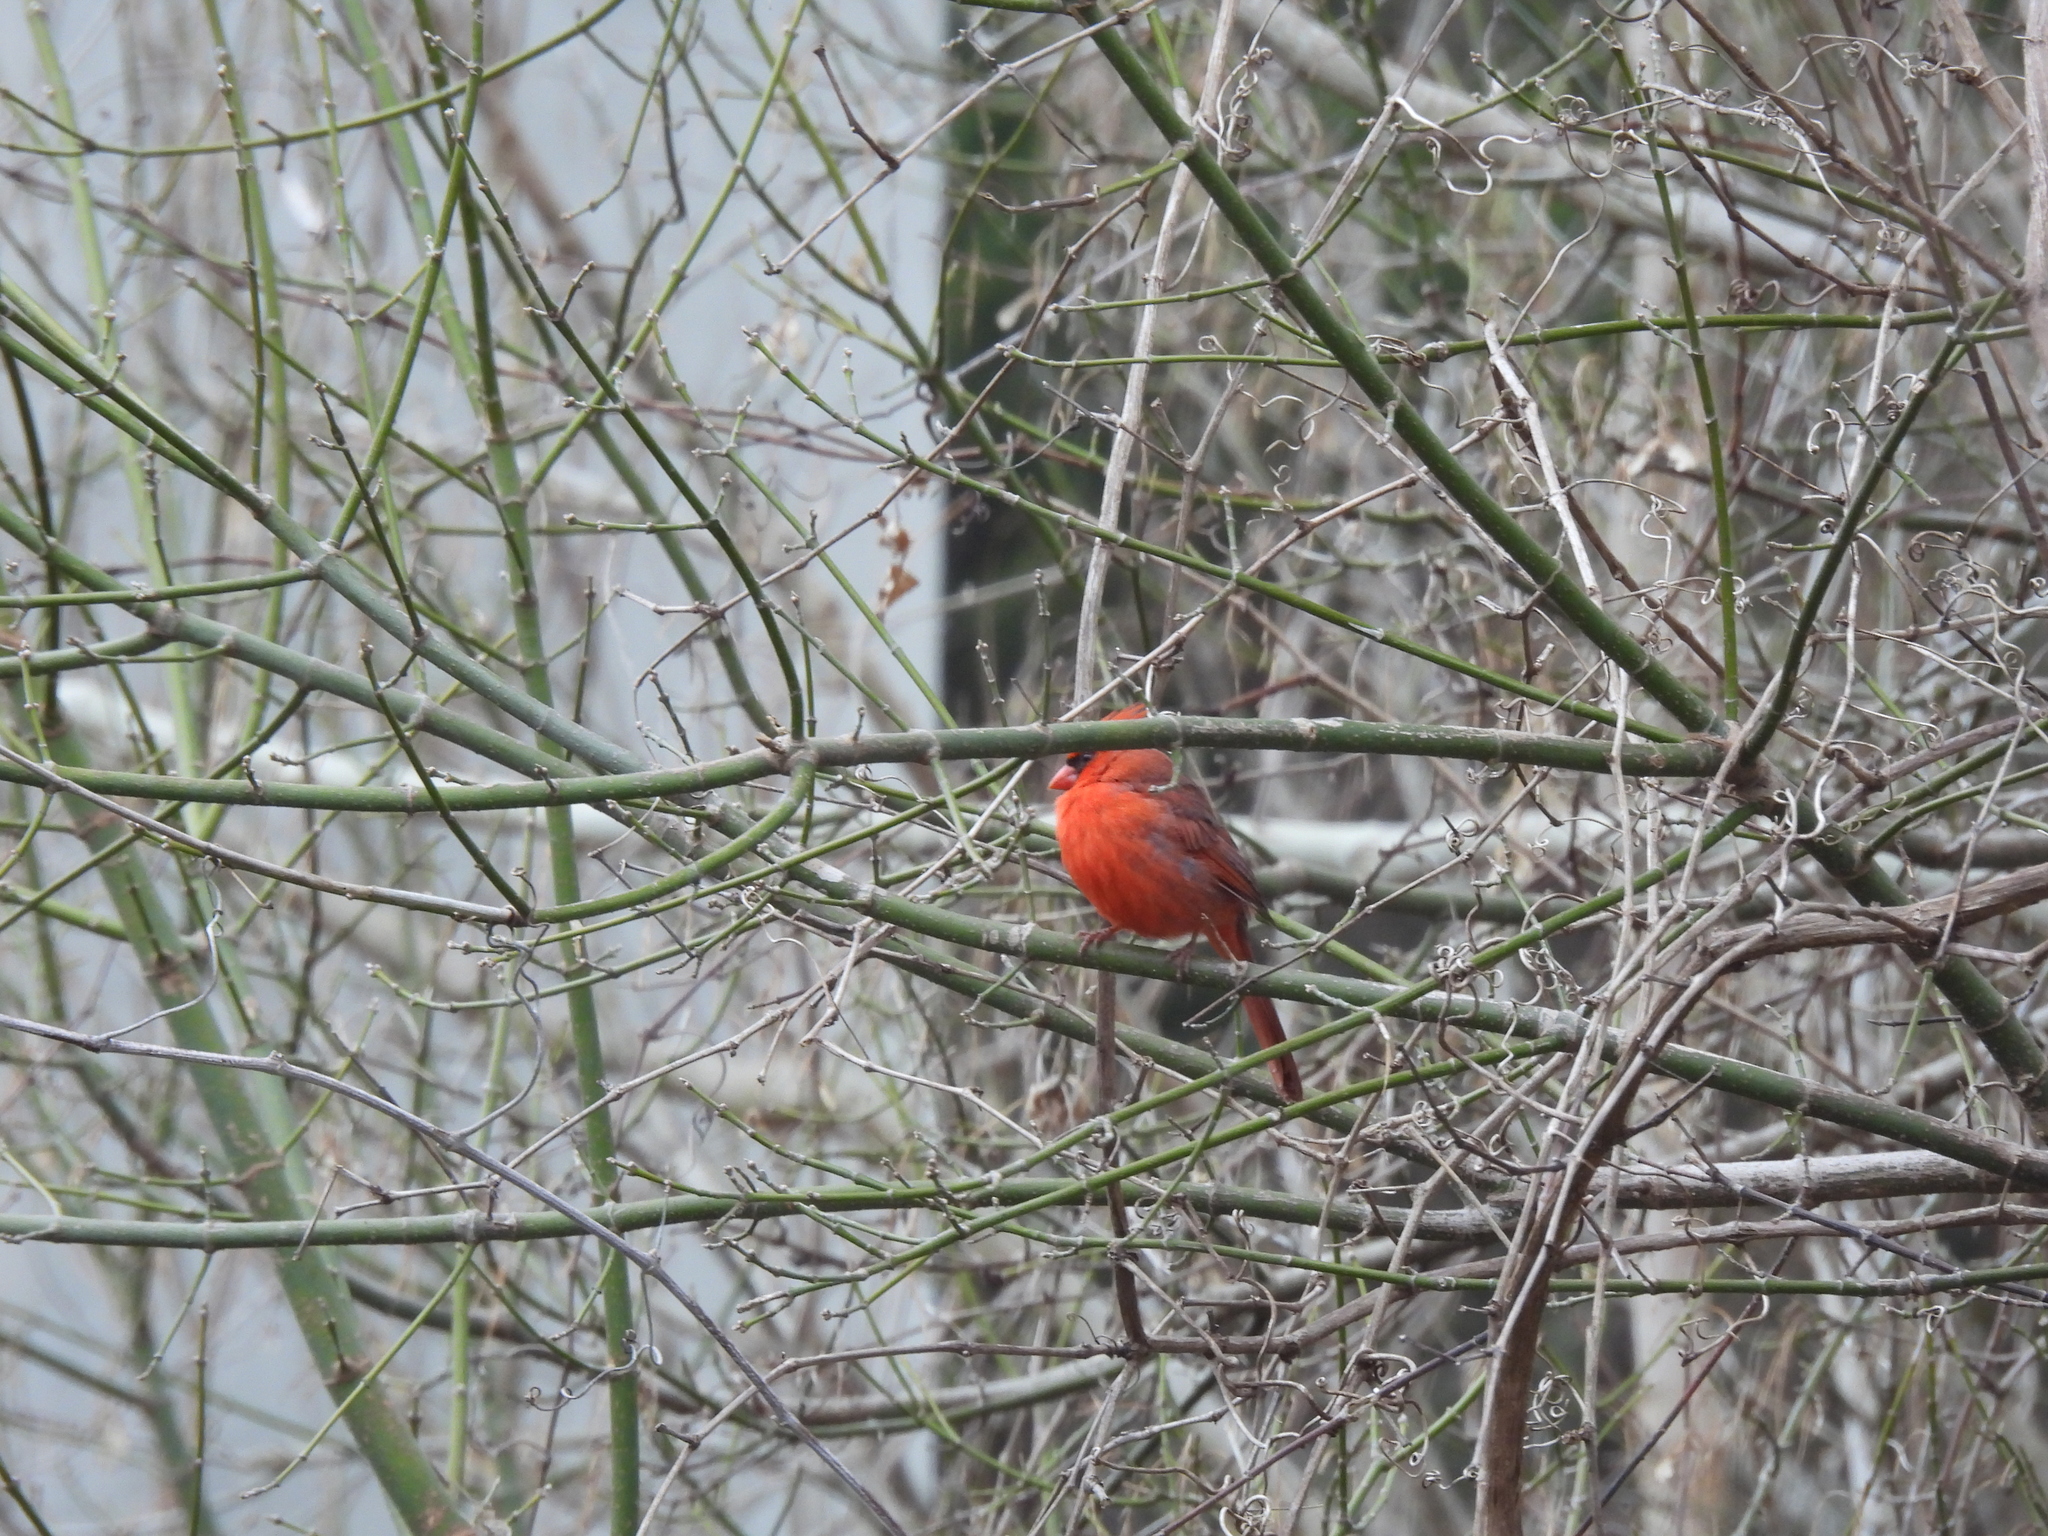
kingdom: Animalia
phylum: Chordata
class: Aves
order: Passeriformes
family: Cardinalidae
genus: Cardinalis
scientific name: Cardinalis cardinalis
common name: Northern cardinal
